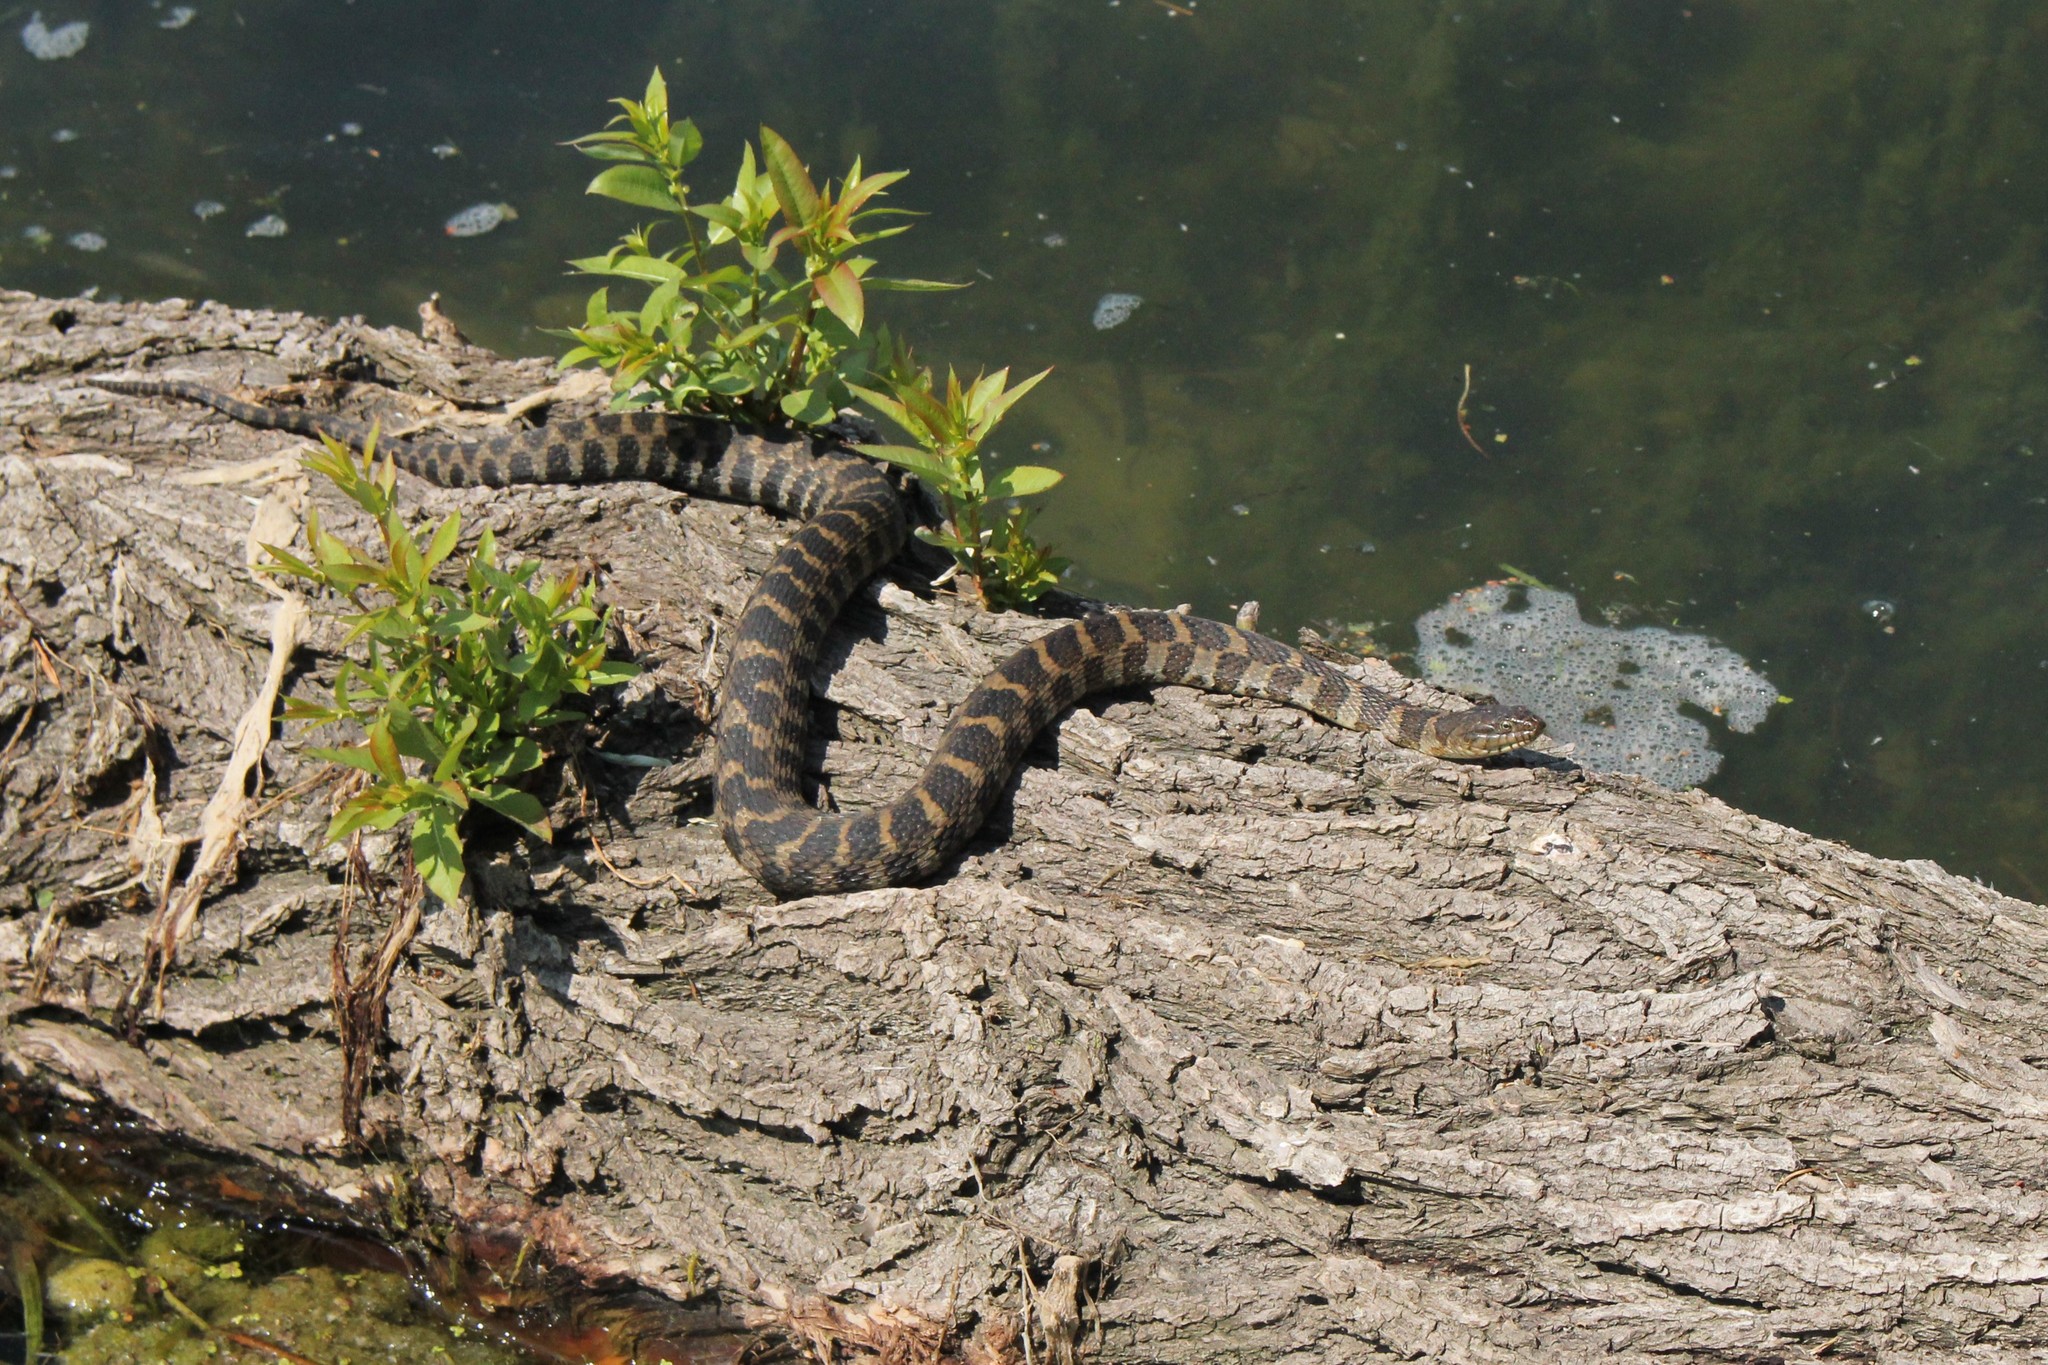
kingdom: Animalia
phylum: Chordata
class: Squamata
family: Colubridae
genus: Nerodia
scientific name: Nerodia sipedon
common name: Northern water snake
